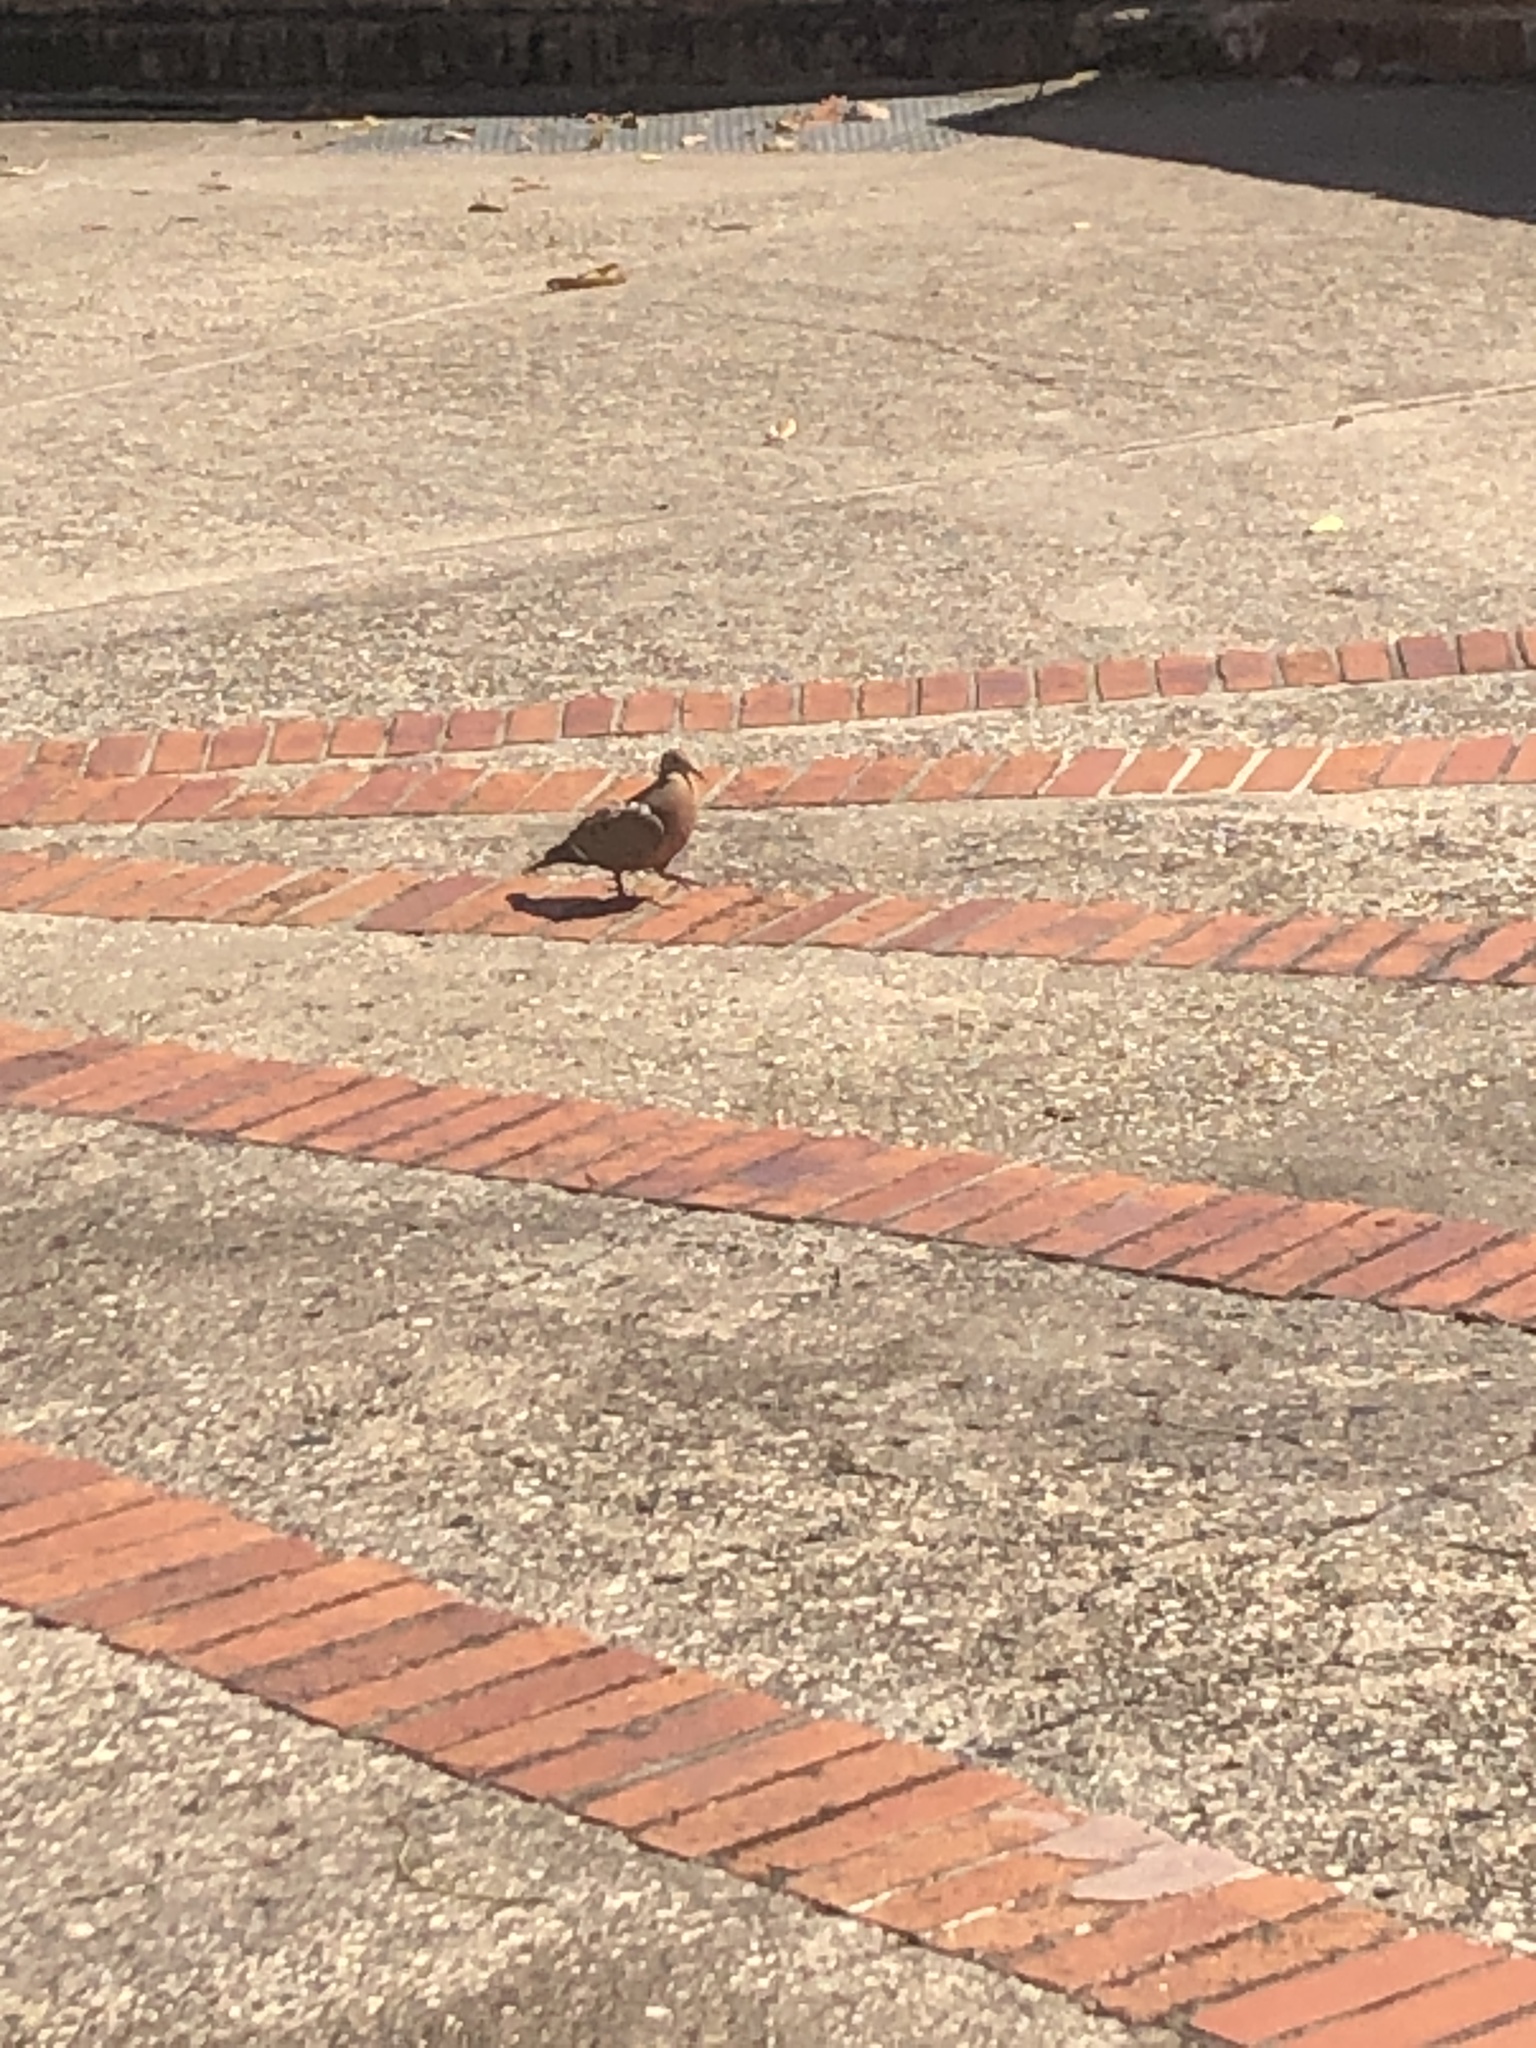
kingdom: Animalia
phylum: Chordata
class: Aves
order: Columbiformes
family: Columbidae
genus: Zenaida
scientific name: Zenaida aurita
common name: Zenaida dove
